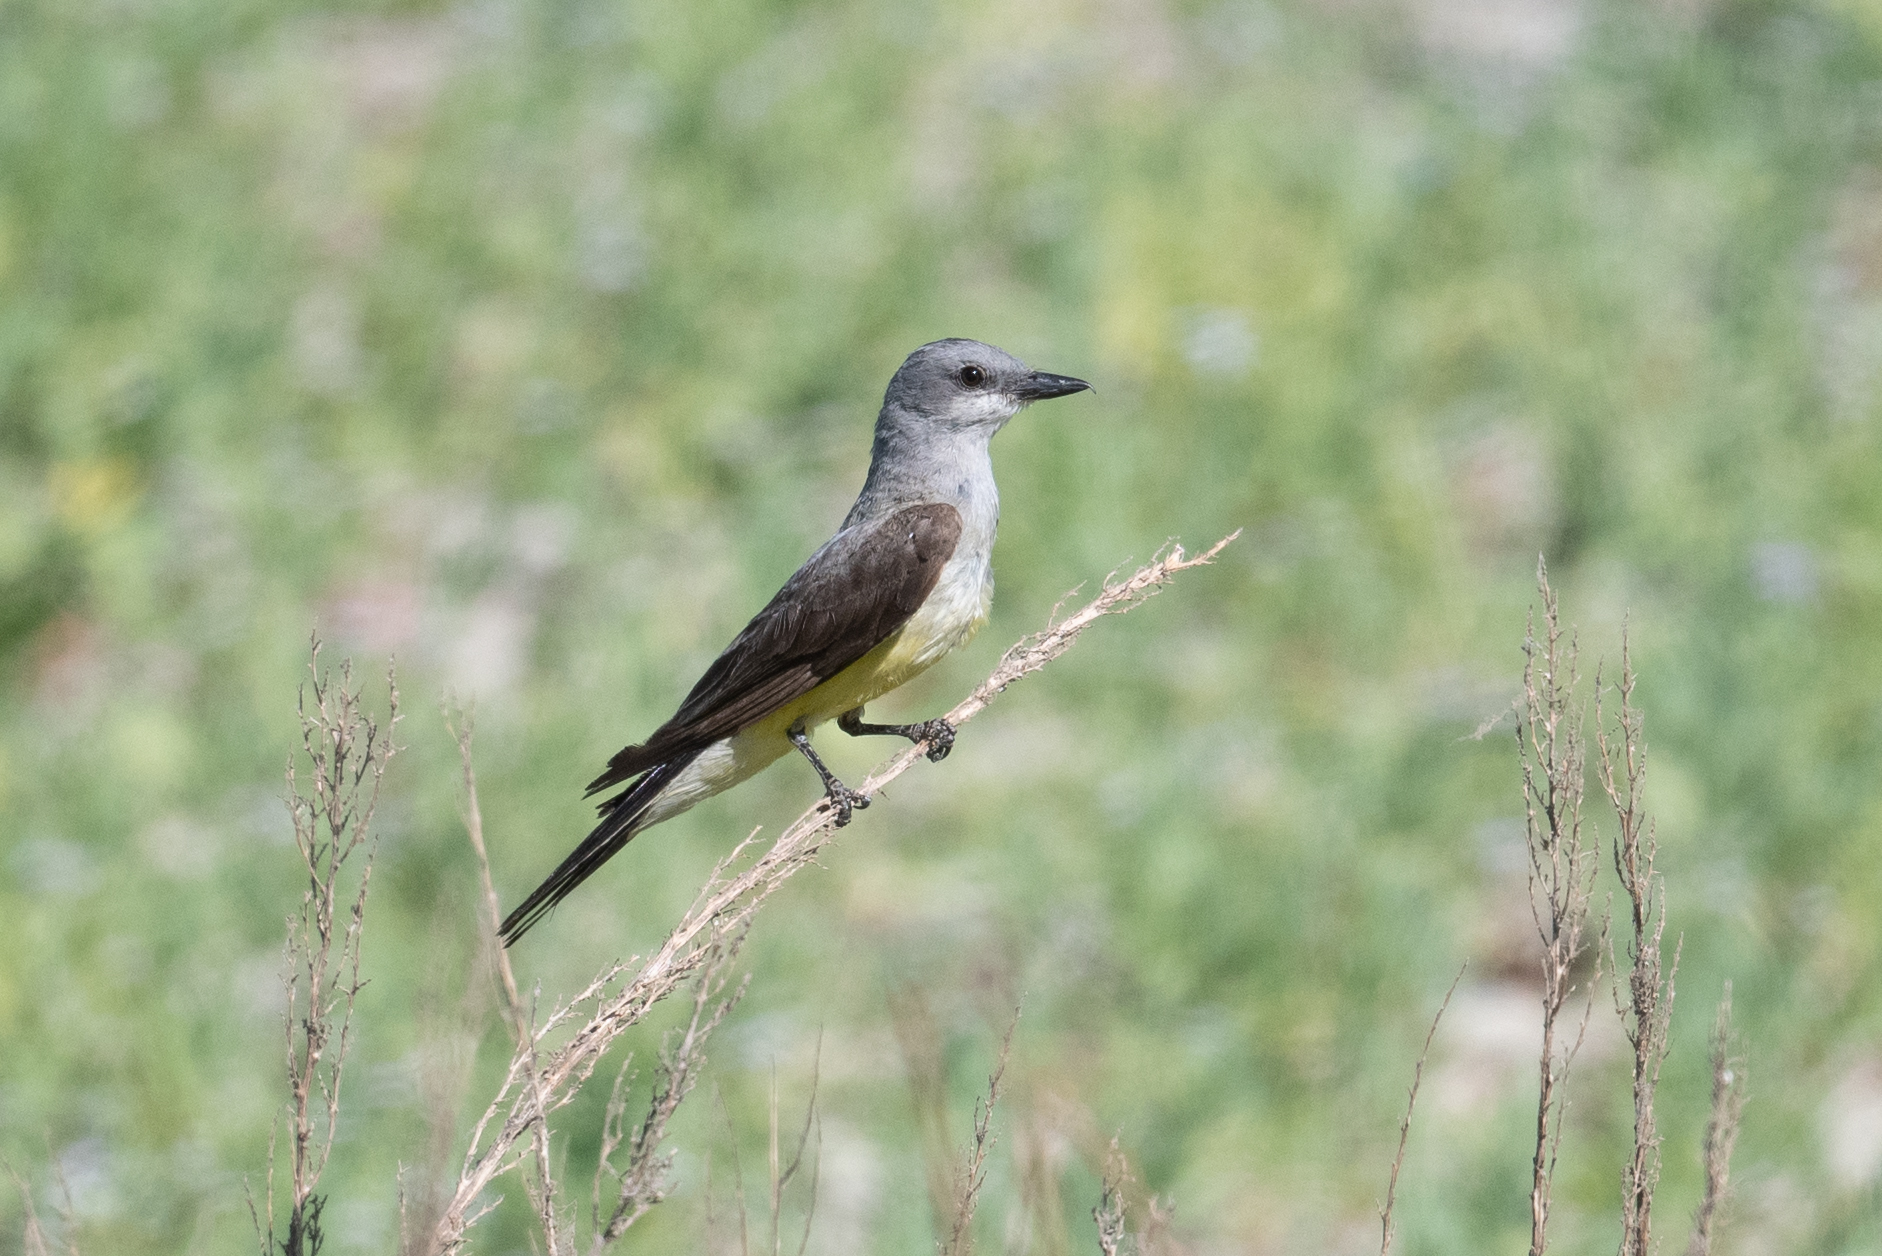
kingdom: Animalia
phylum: Chordata
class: Aves
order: Passeriformes
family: Tyrannidae
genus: Tyrannus
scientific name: Tyrannus verticalis
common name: Western kingbird
